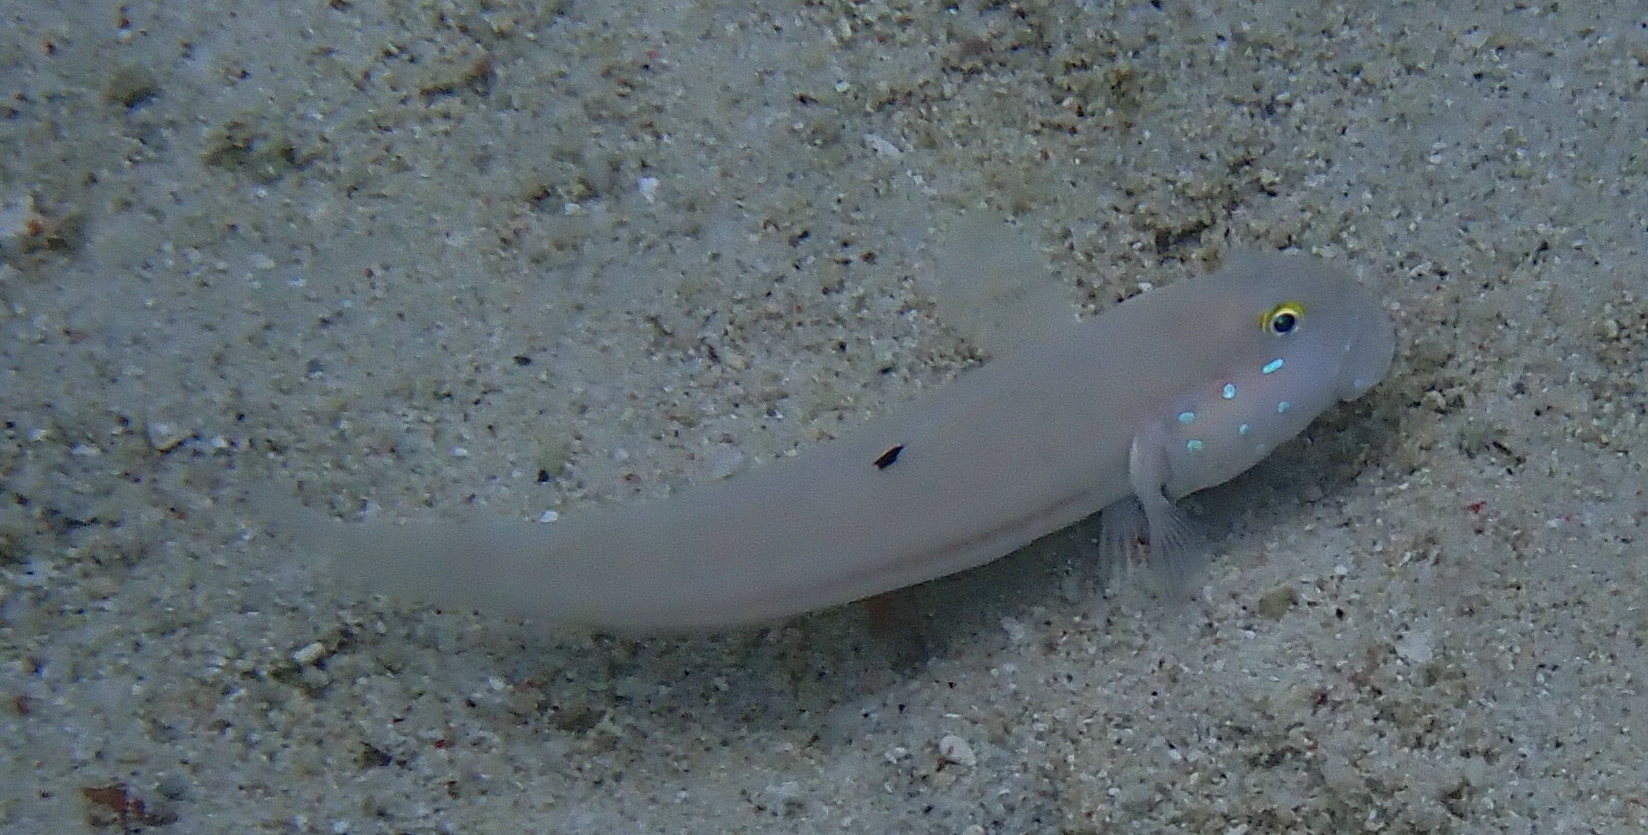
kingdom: Animalia
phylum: Chordata
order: Perciformes
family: Gobiidae
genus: Valenciennea
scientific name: Valenciennea sexguttata
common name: Sixspot goby
